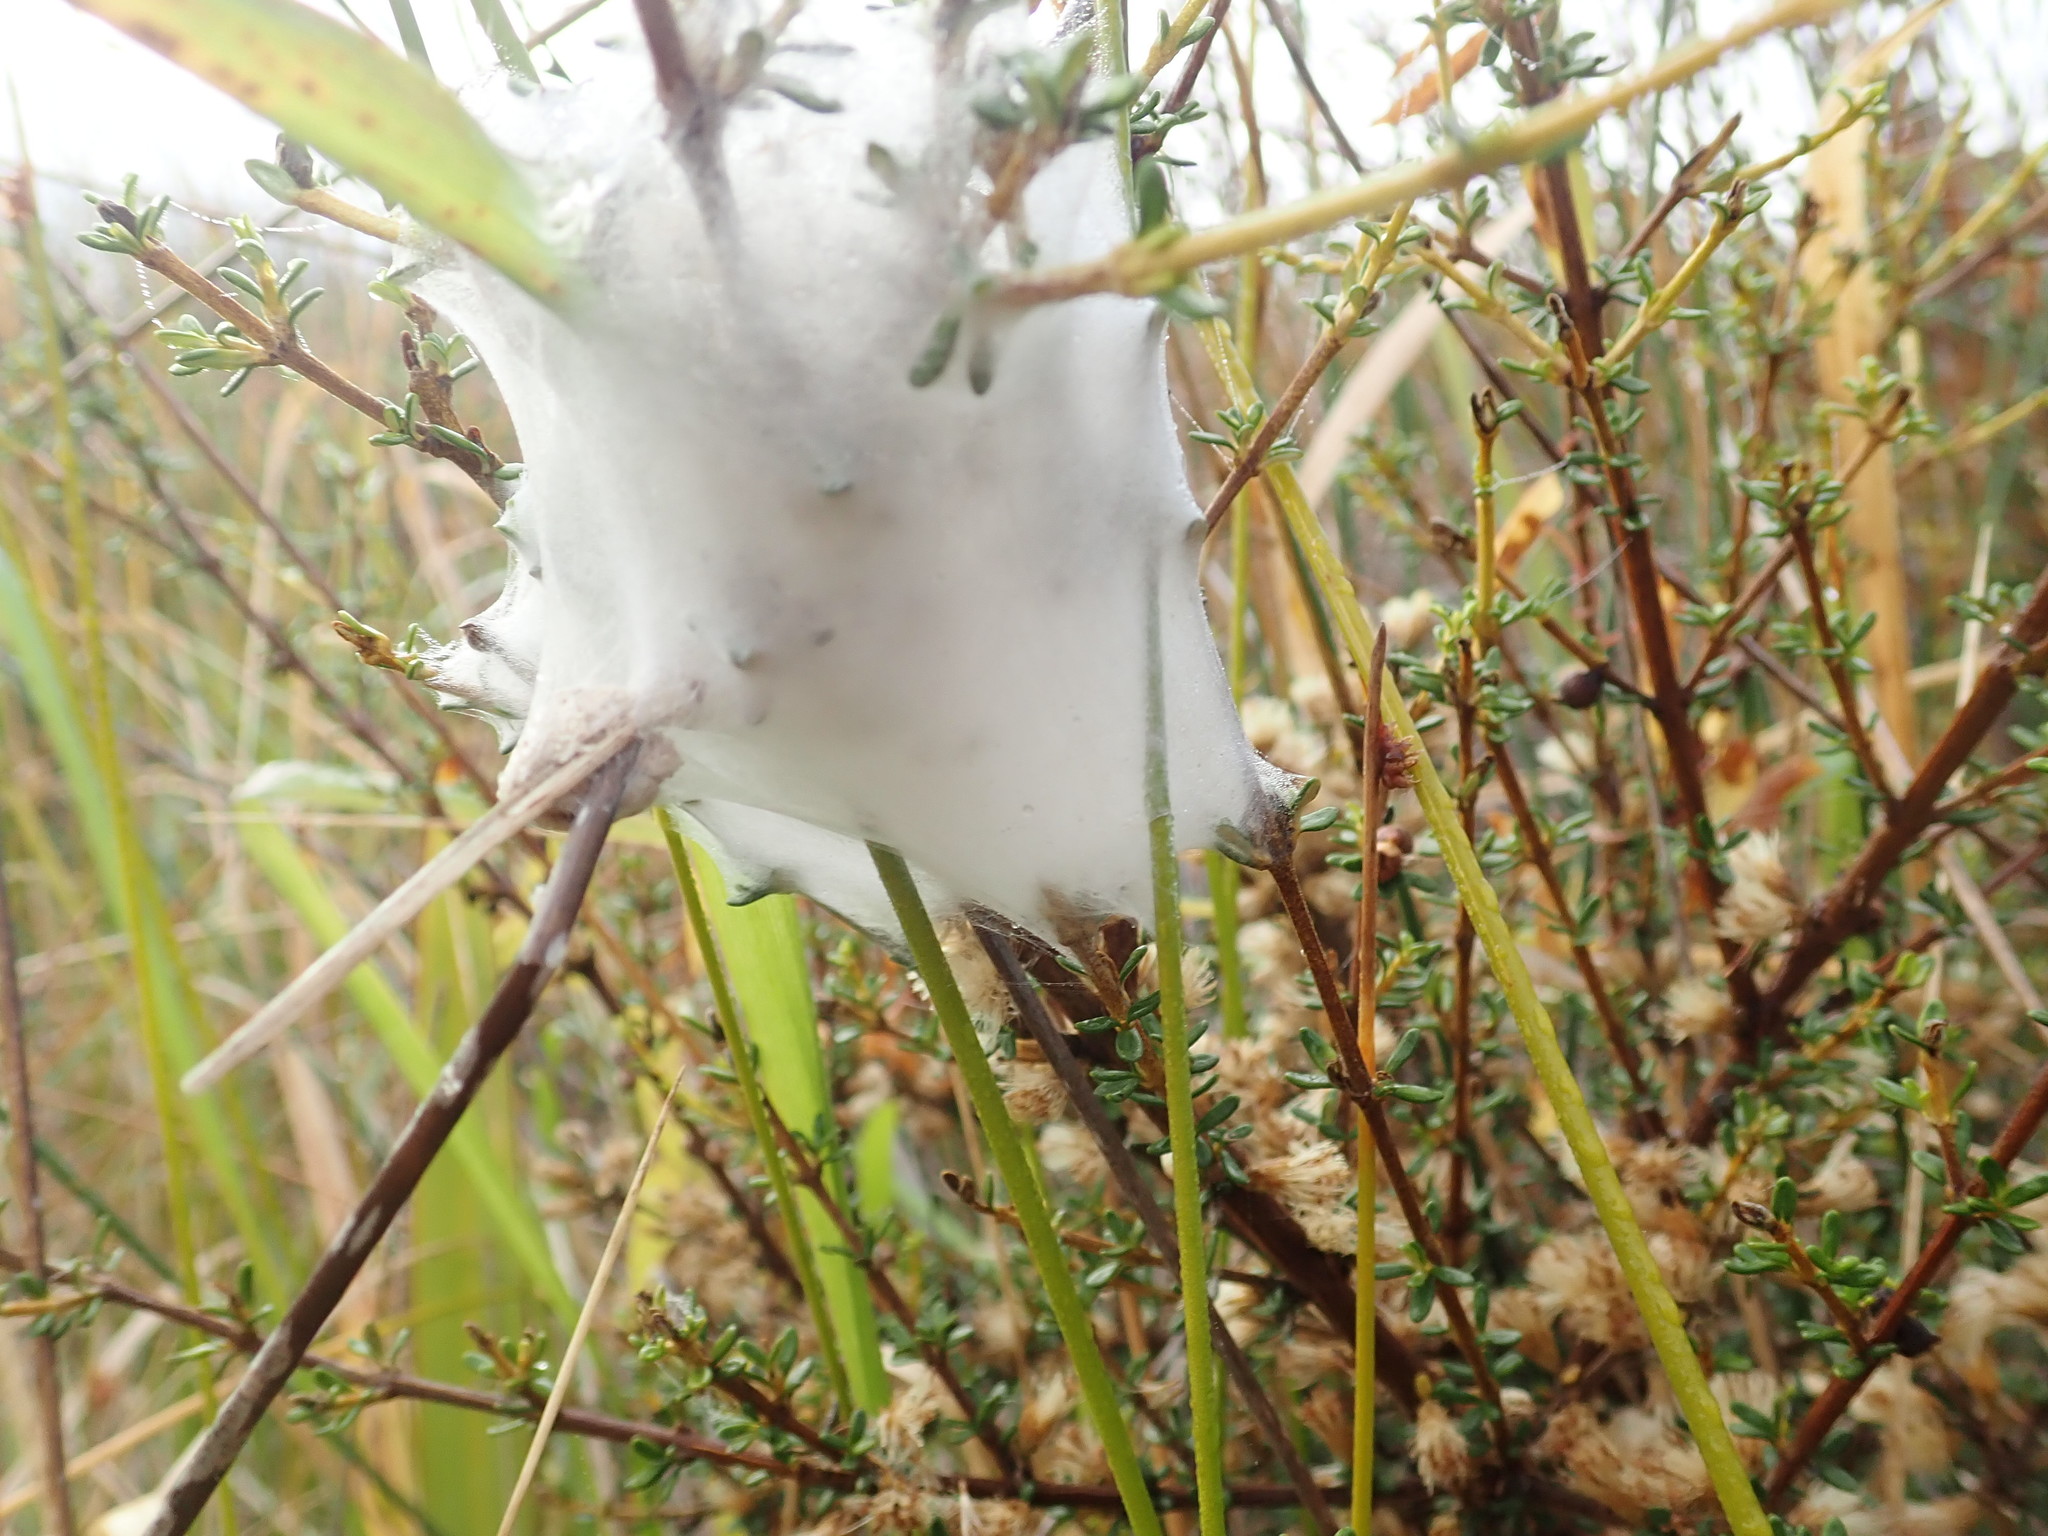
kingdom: Animalia
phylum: Arthropoda
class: Arachnida
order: Araneae
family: Pisauridae
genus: Dolomedes
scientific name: Dolomedes minor
